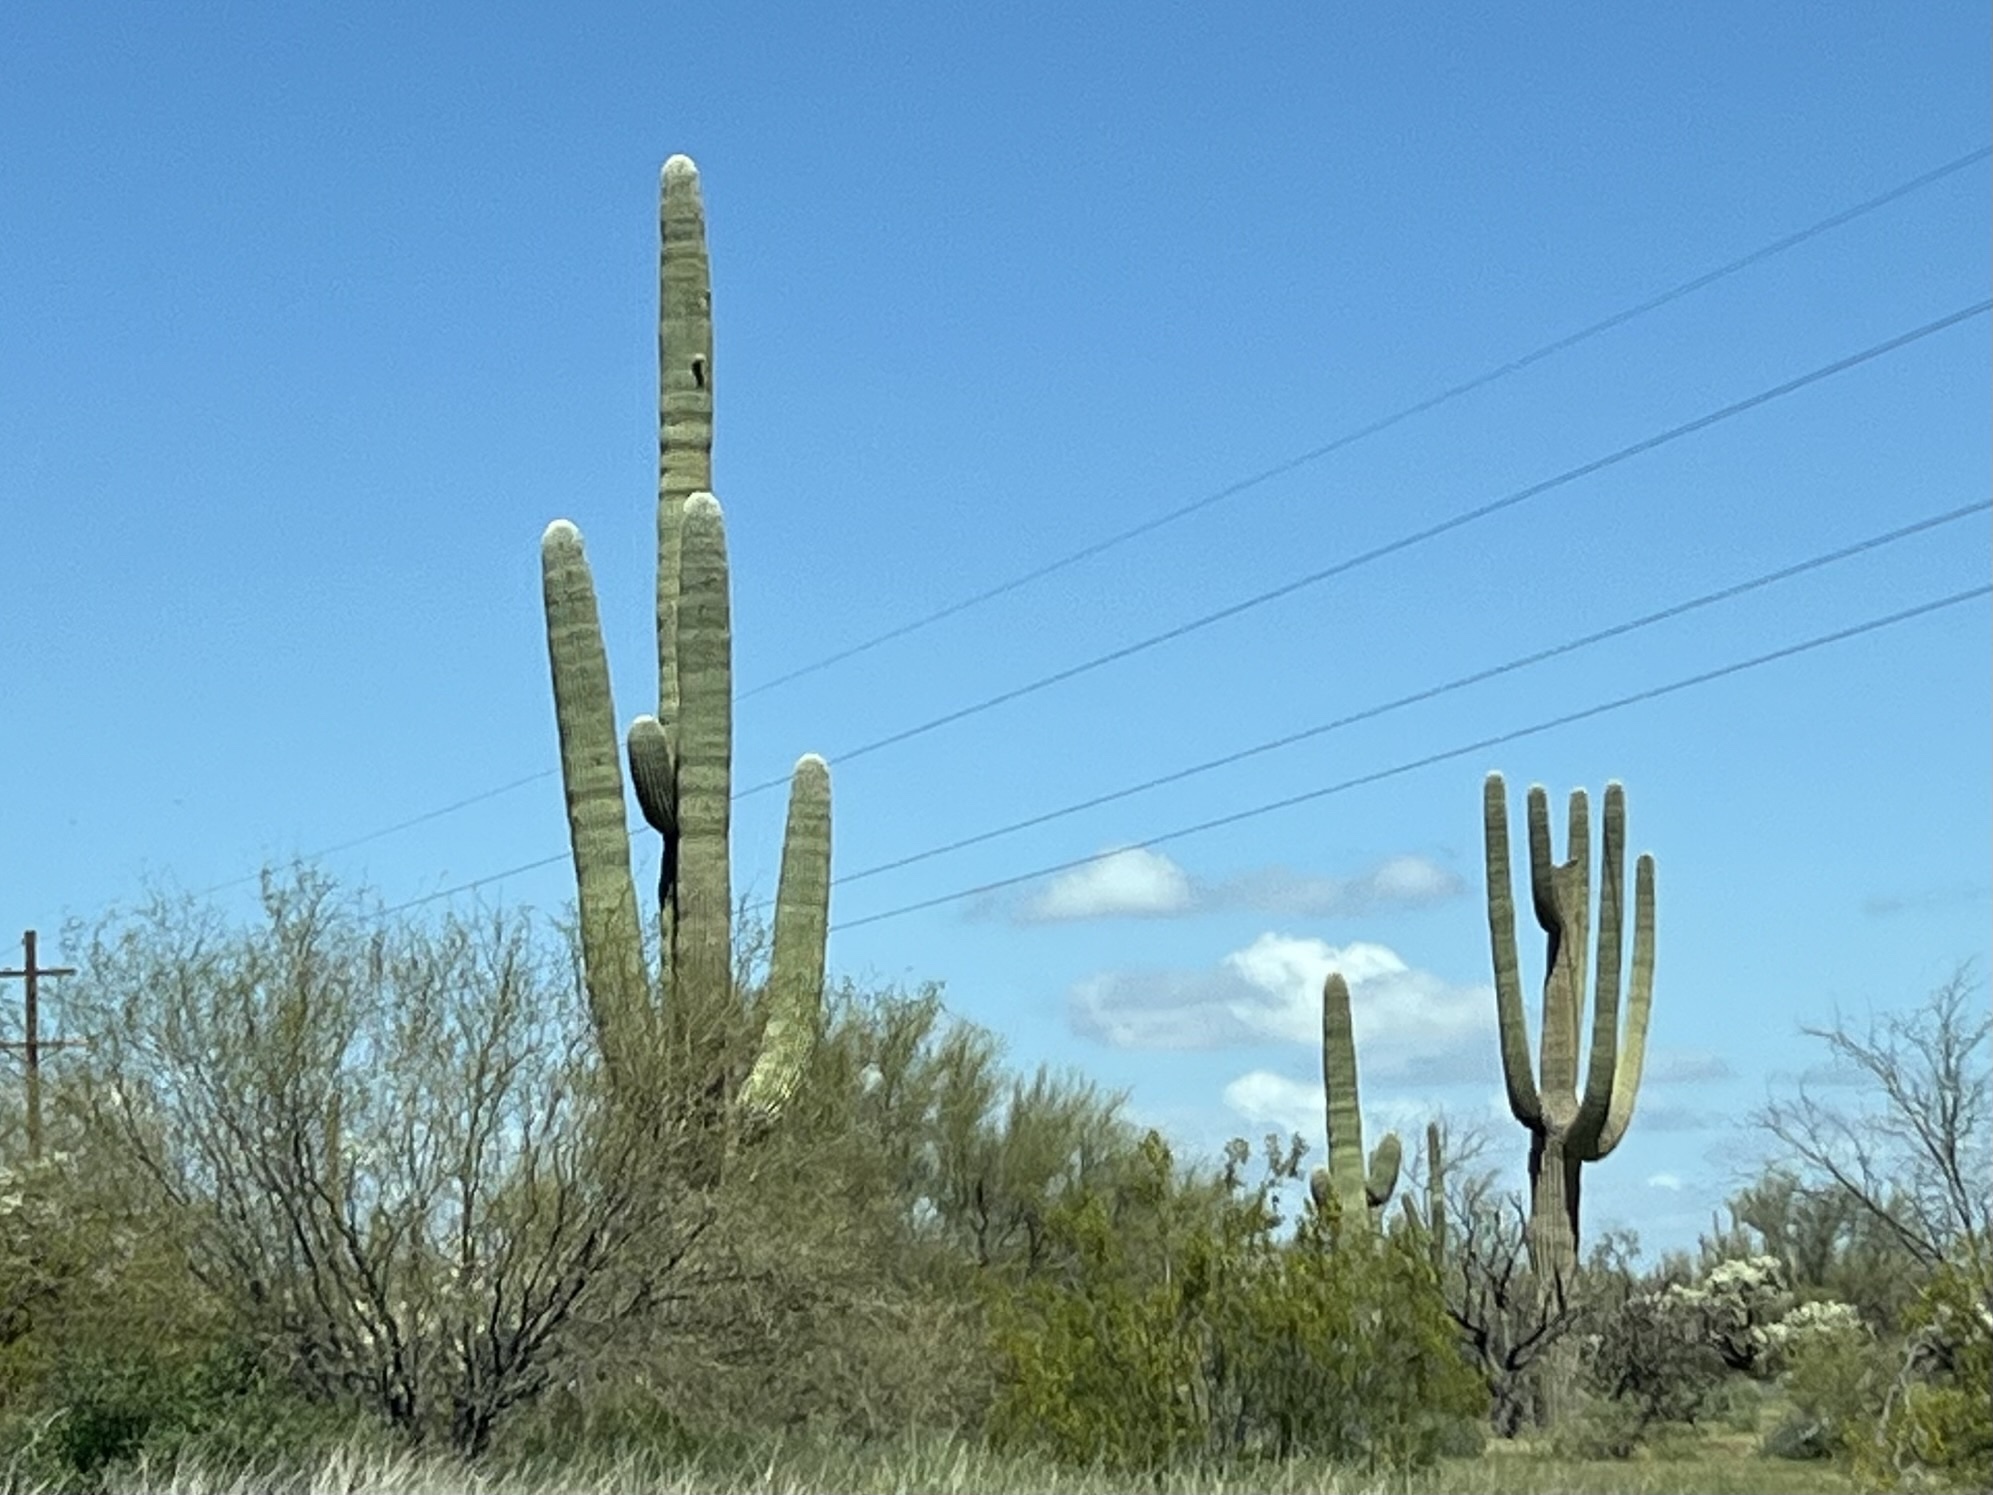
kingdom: Plantae
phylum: Tracheophyta
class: Magnoliopsida
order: Caryophyllales
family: Cactaceae
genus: Carnegiea
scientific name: Carnegiea gigantea
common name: Saguaro
